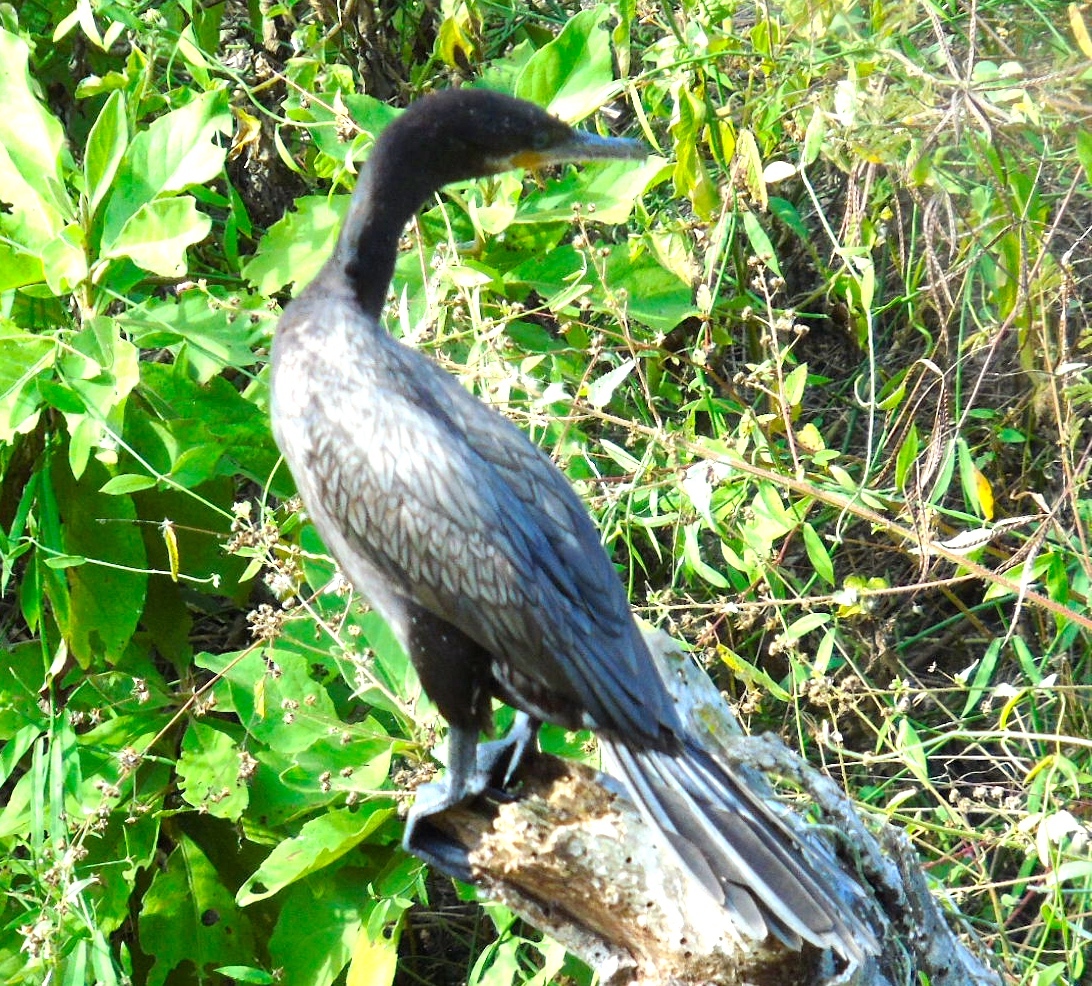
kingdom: Animalia
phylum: Chordata
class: Aves
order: Suliformes
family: Phalacrocoracidae
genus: Phalacrocorax
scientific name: Phalacrocorax brasilianus
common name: Neotropic cormorant
